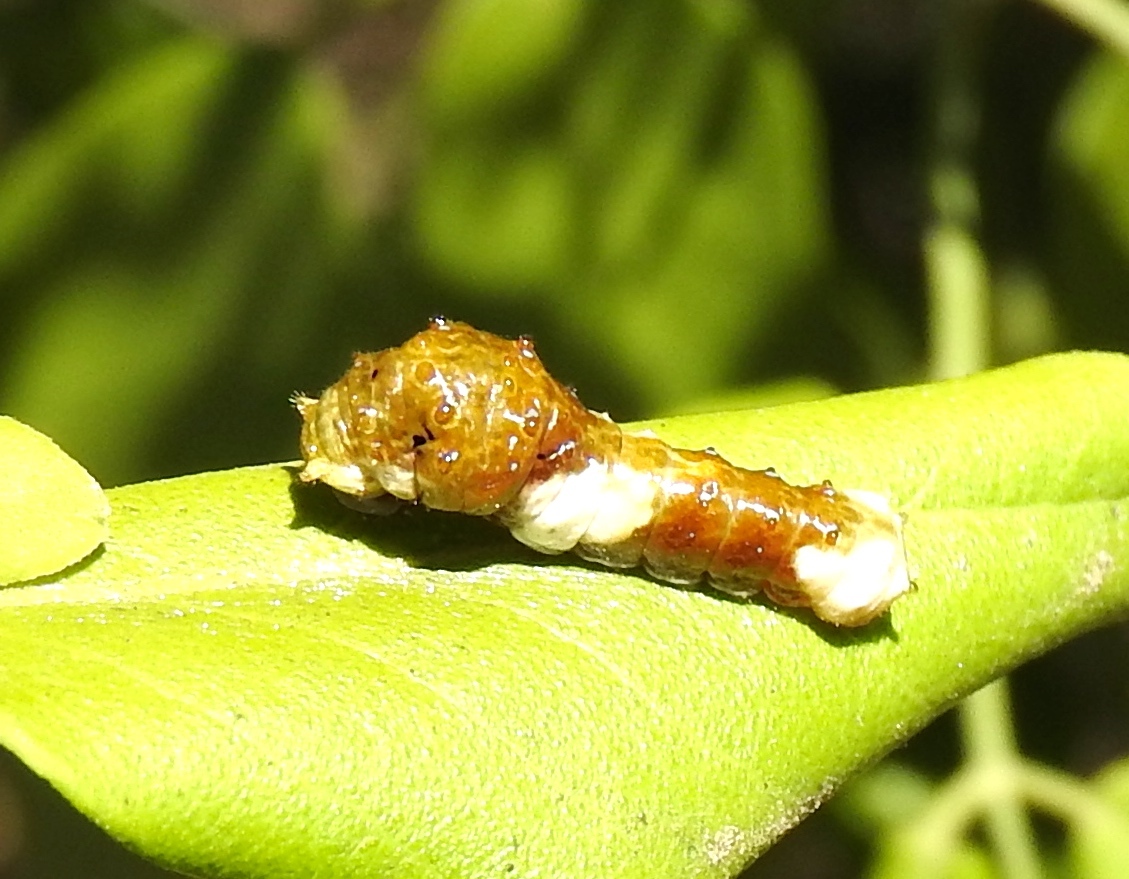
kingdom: Animalia
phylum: Arthropoda
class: Insecta
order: Lepidoptera
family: Papilionidae
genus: Papilio
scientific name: Papilio
